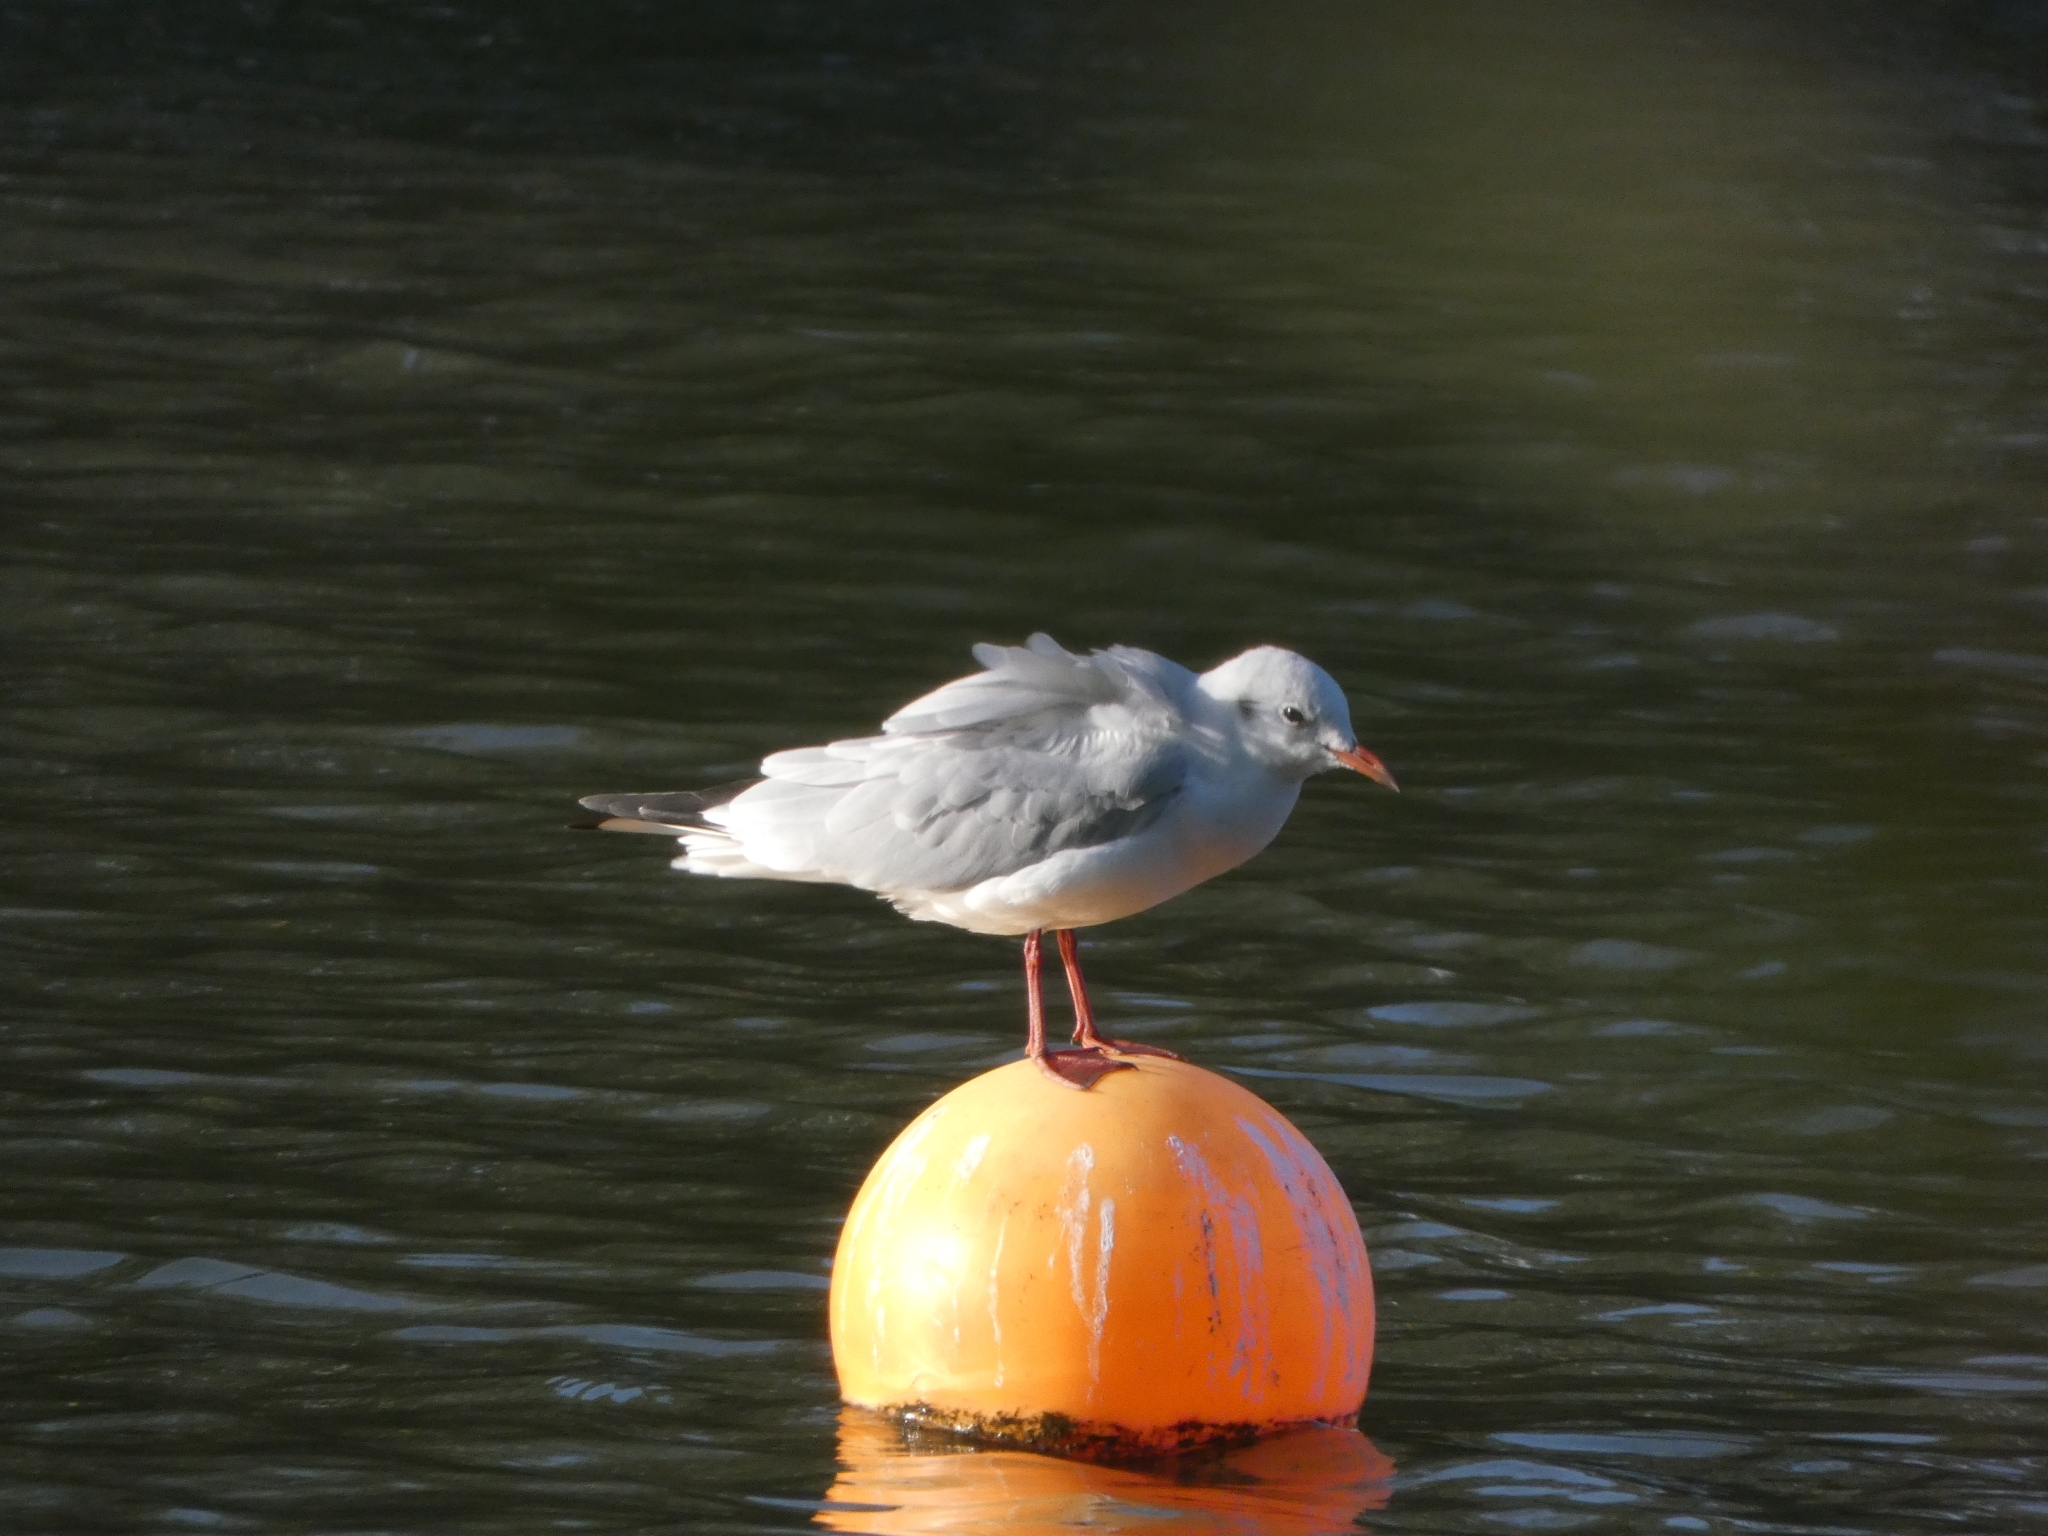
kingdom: Animalia
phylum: Chordata
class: Aves
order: Charadriiformes
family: Laridae
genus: Chroicocephalus
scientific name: Chroicocephalus ridibundus
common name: Black-headed gull
